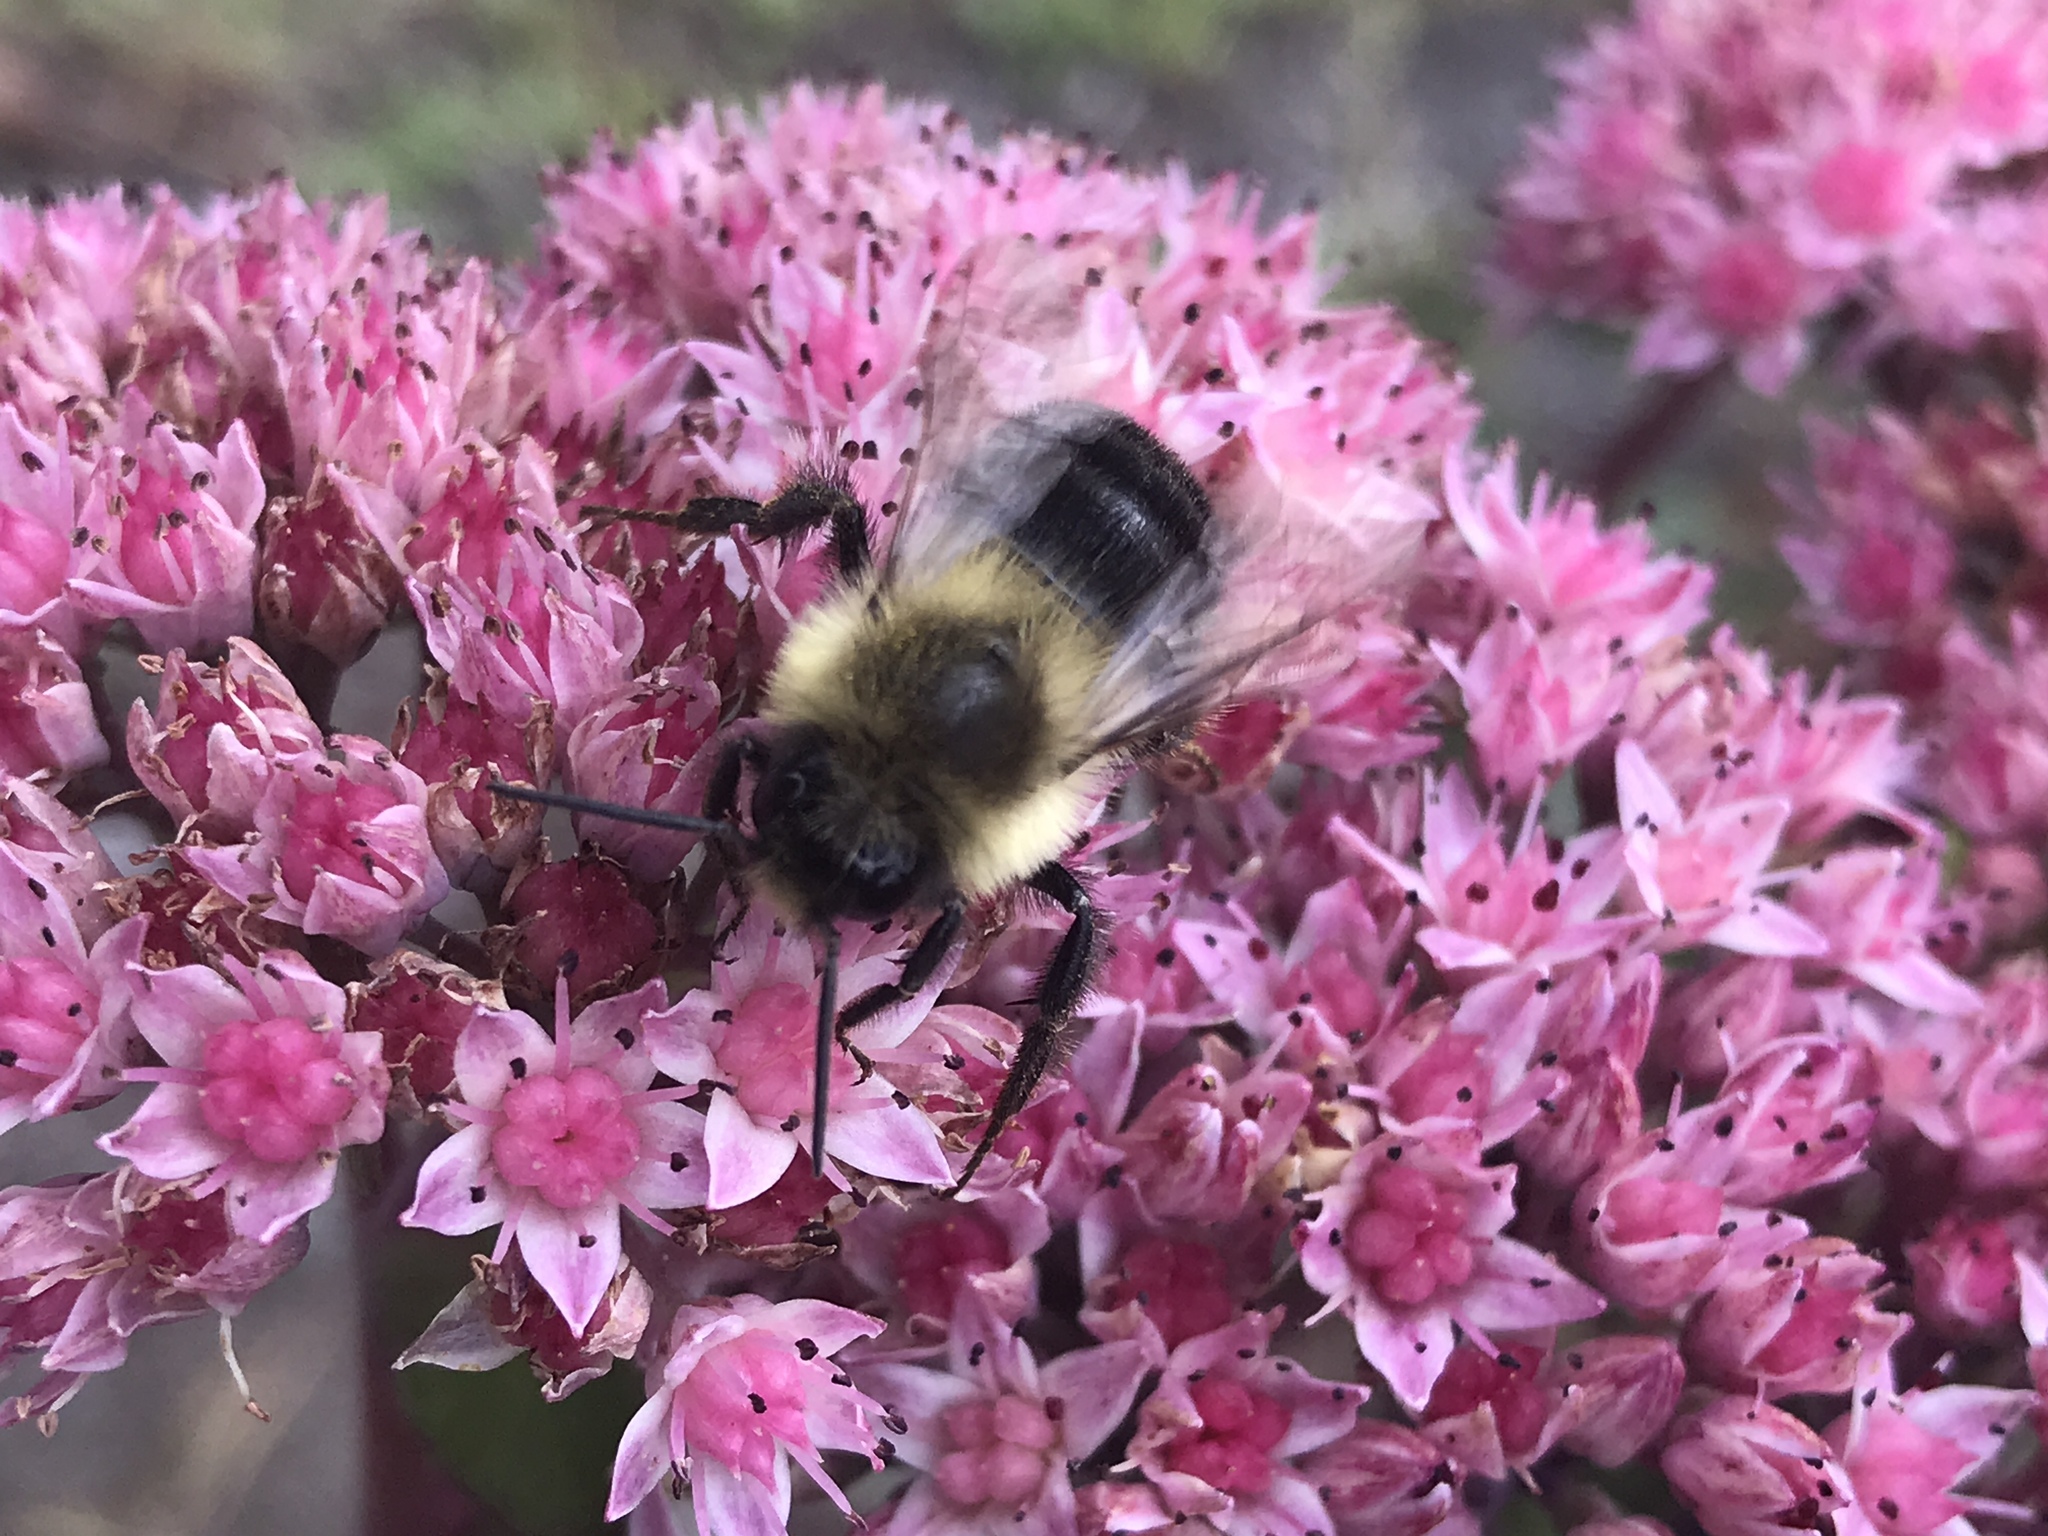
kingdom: Animalia
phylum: Arthropoda
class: Insecta
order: Hymenoptera
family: Apidae
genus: Bombus
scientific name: Bombus impatiens
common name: Common eastern bumble bee
